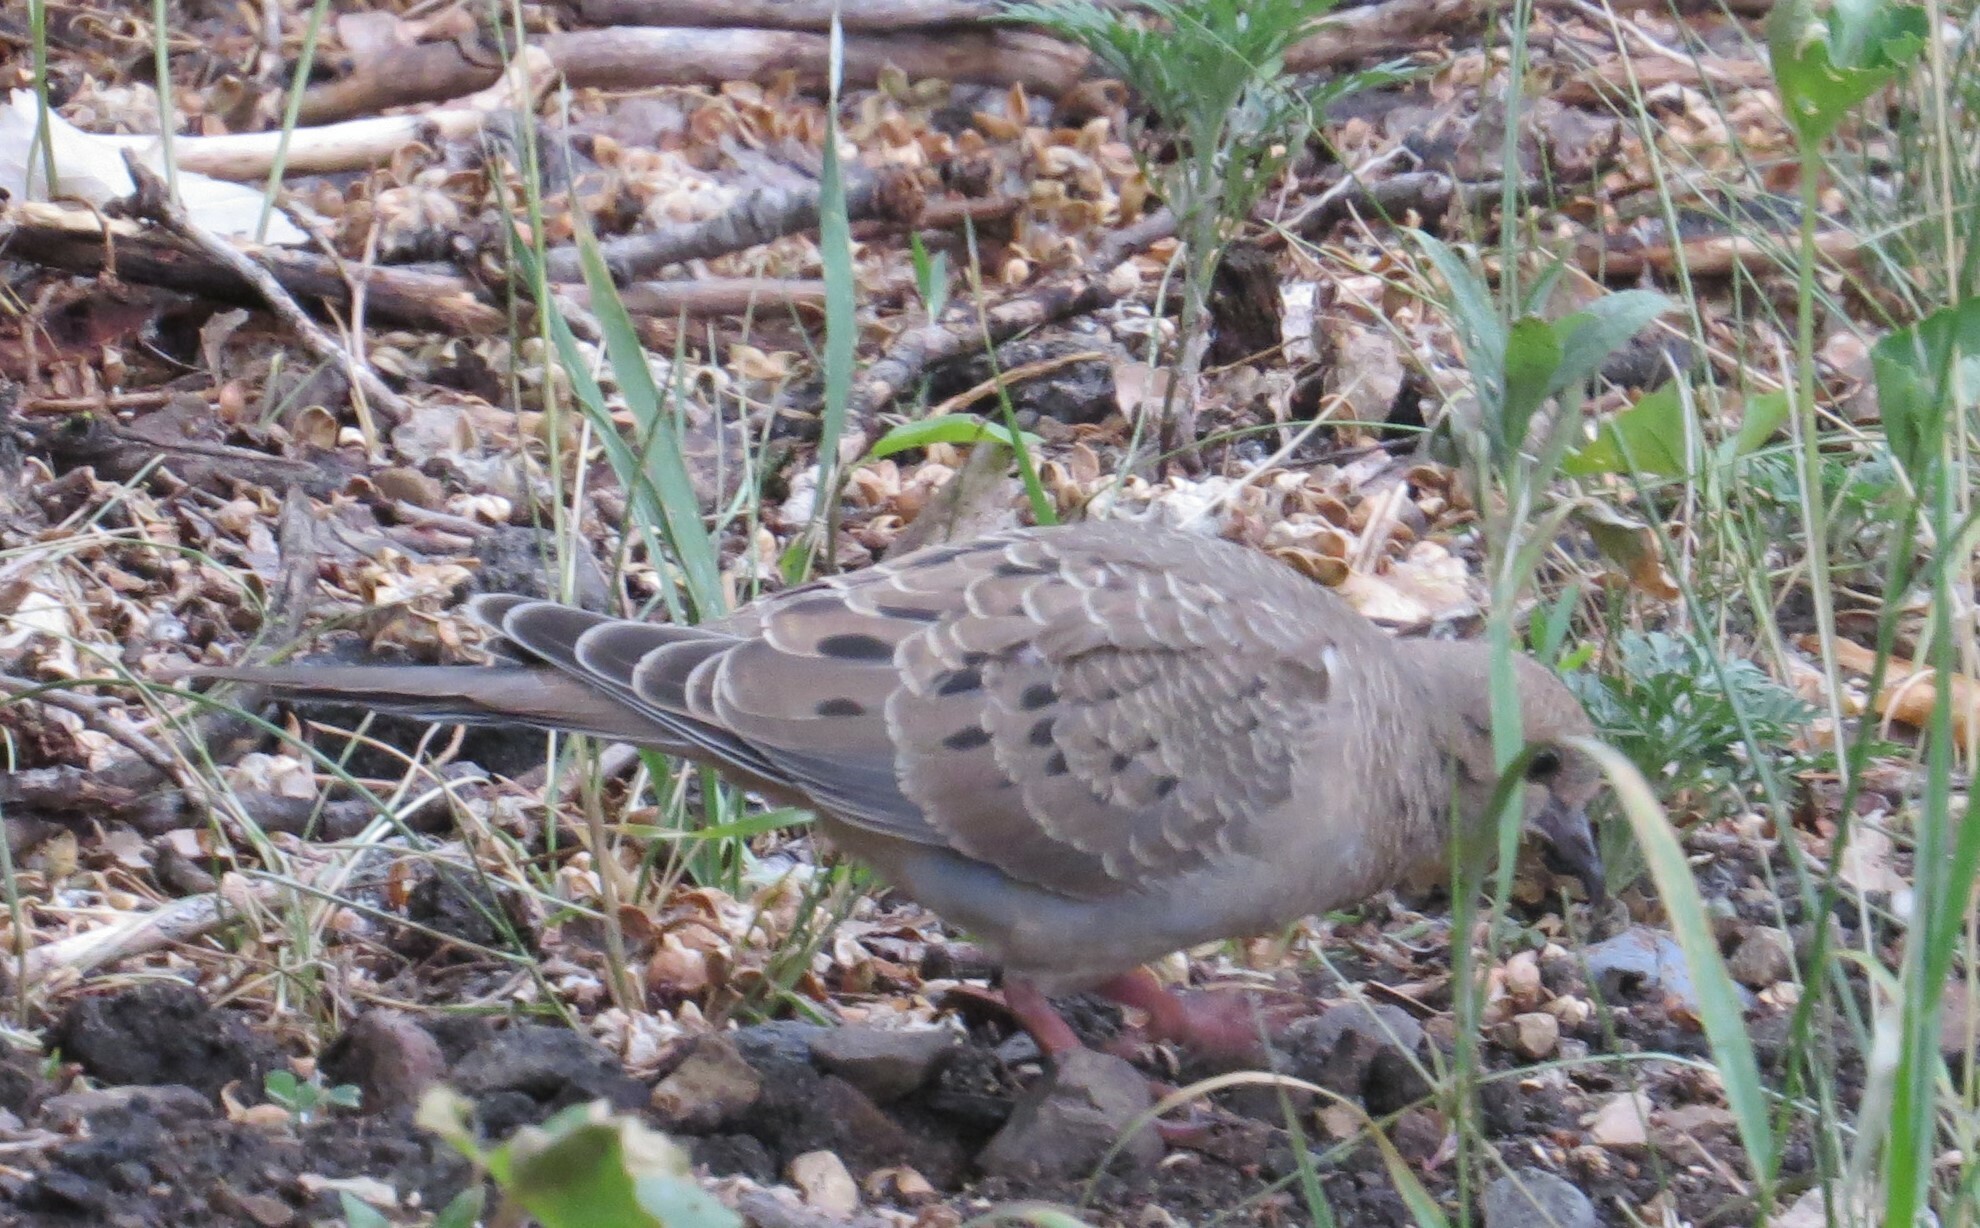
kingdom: Animalia
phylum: Chordata
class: Aves
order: Columbiformes
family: Columbidae
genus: Zenaida
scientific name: Zenaida macroura
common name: Mourning dove
